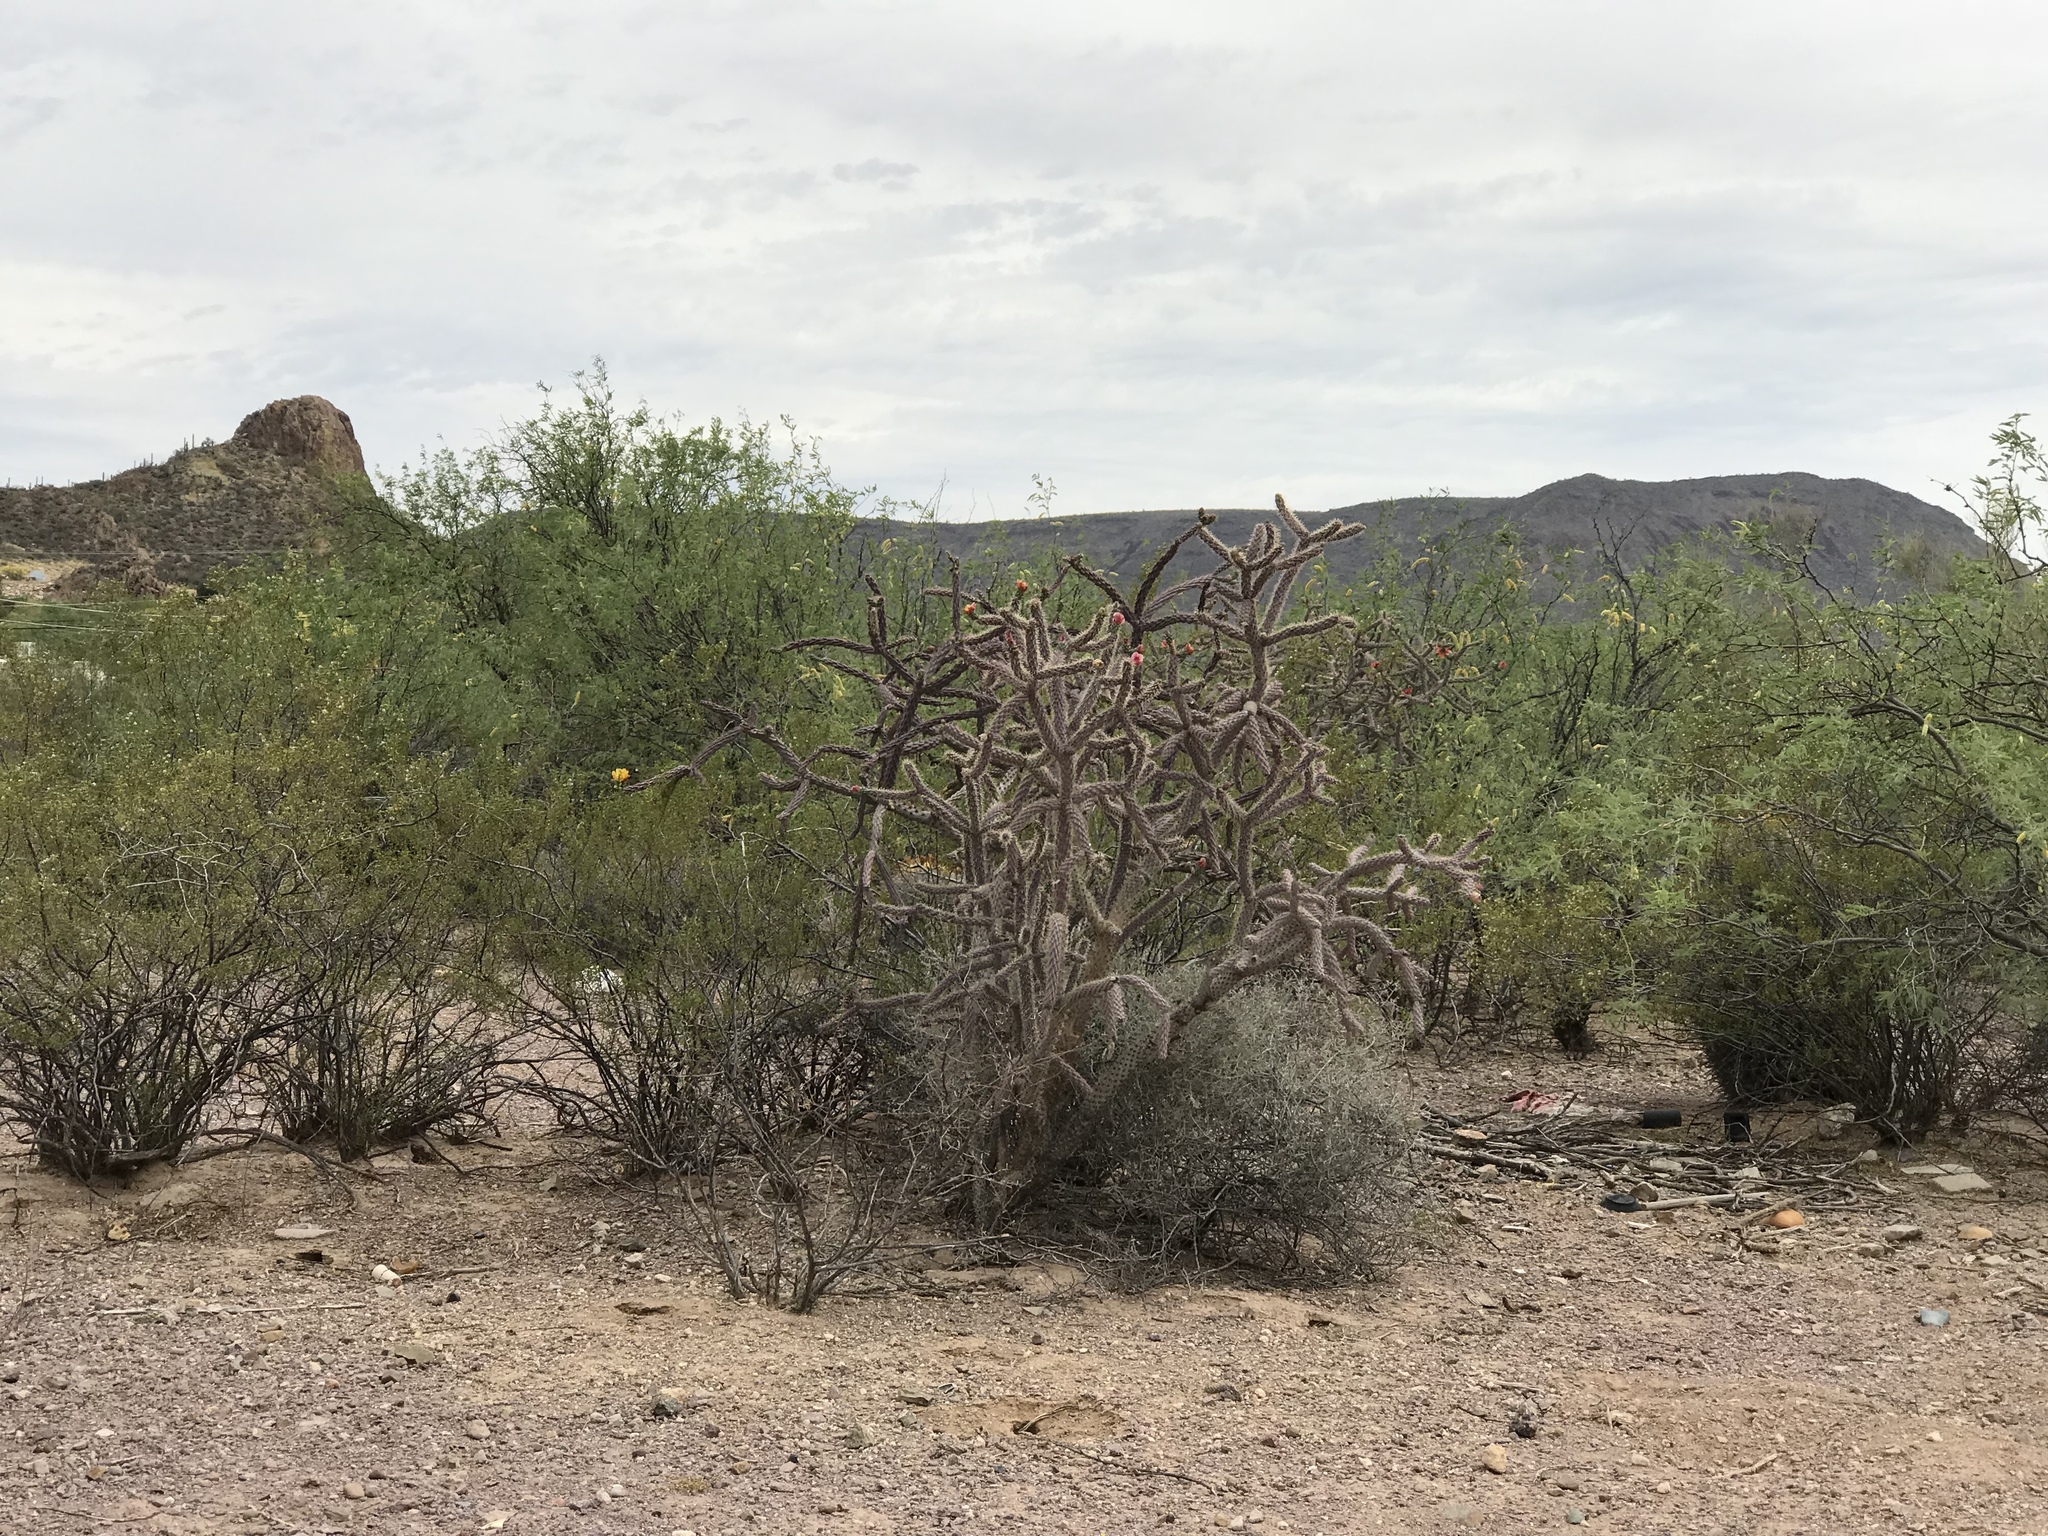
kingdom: Plantae
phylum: Tracheophyta
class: Magnoliopsida
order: Caryophyllales
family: Cactaceae
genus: Cylindropuntia
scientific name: Cylindropuntia thurberi
